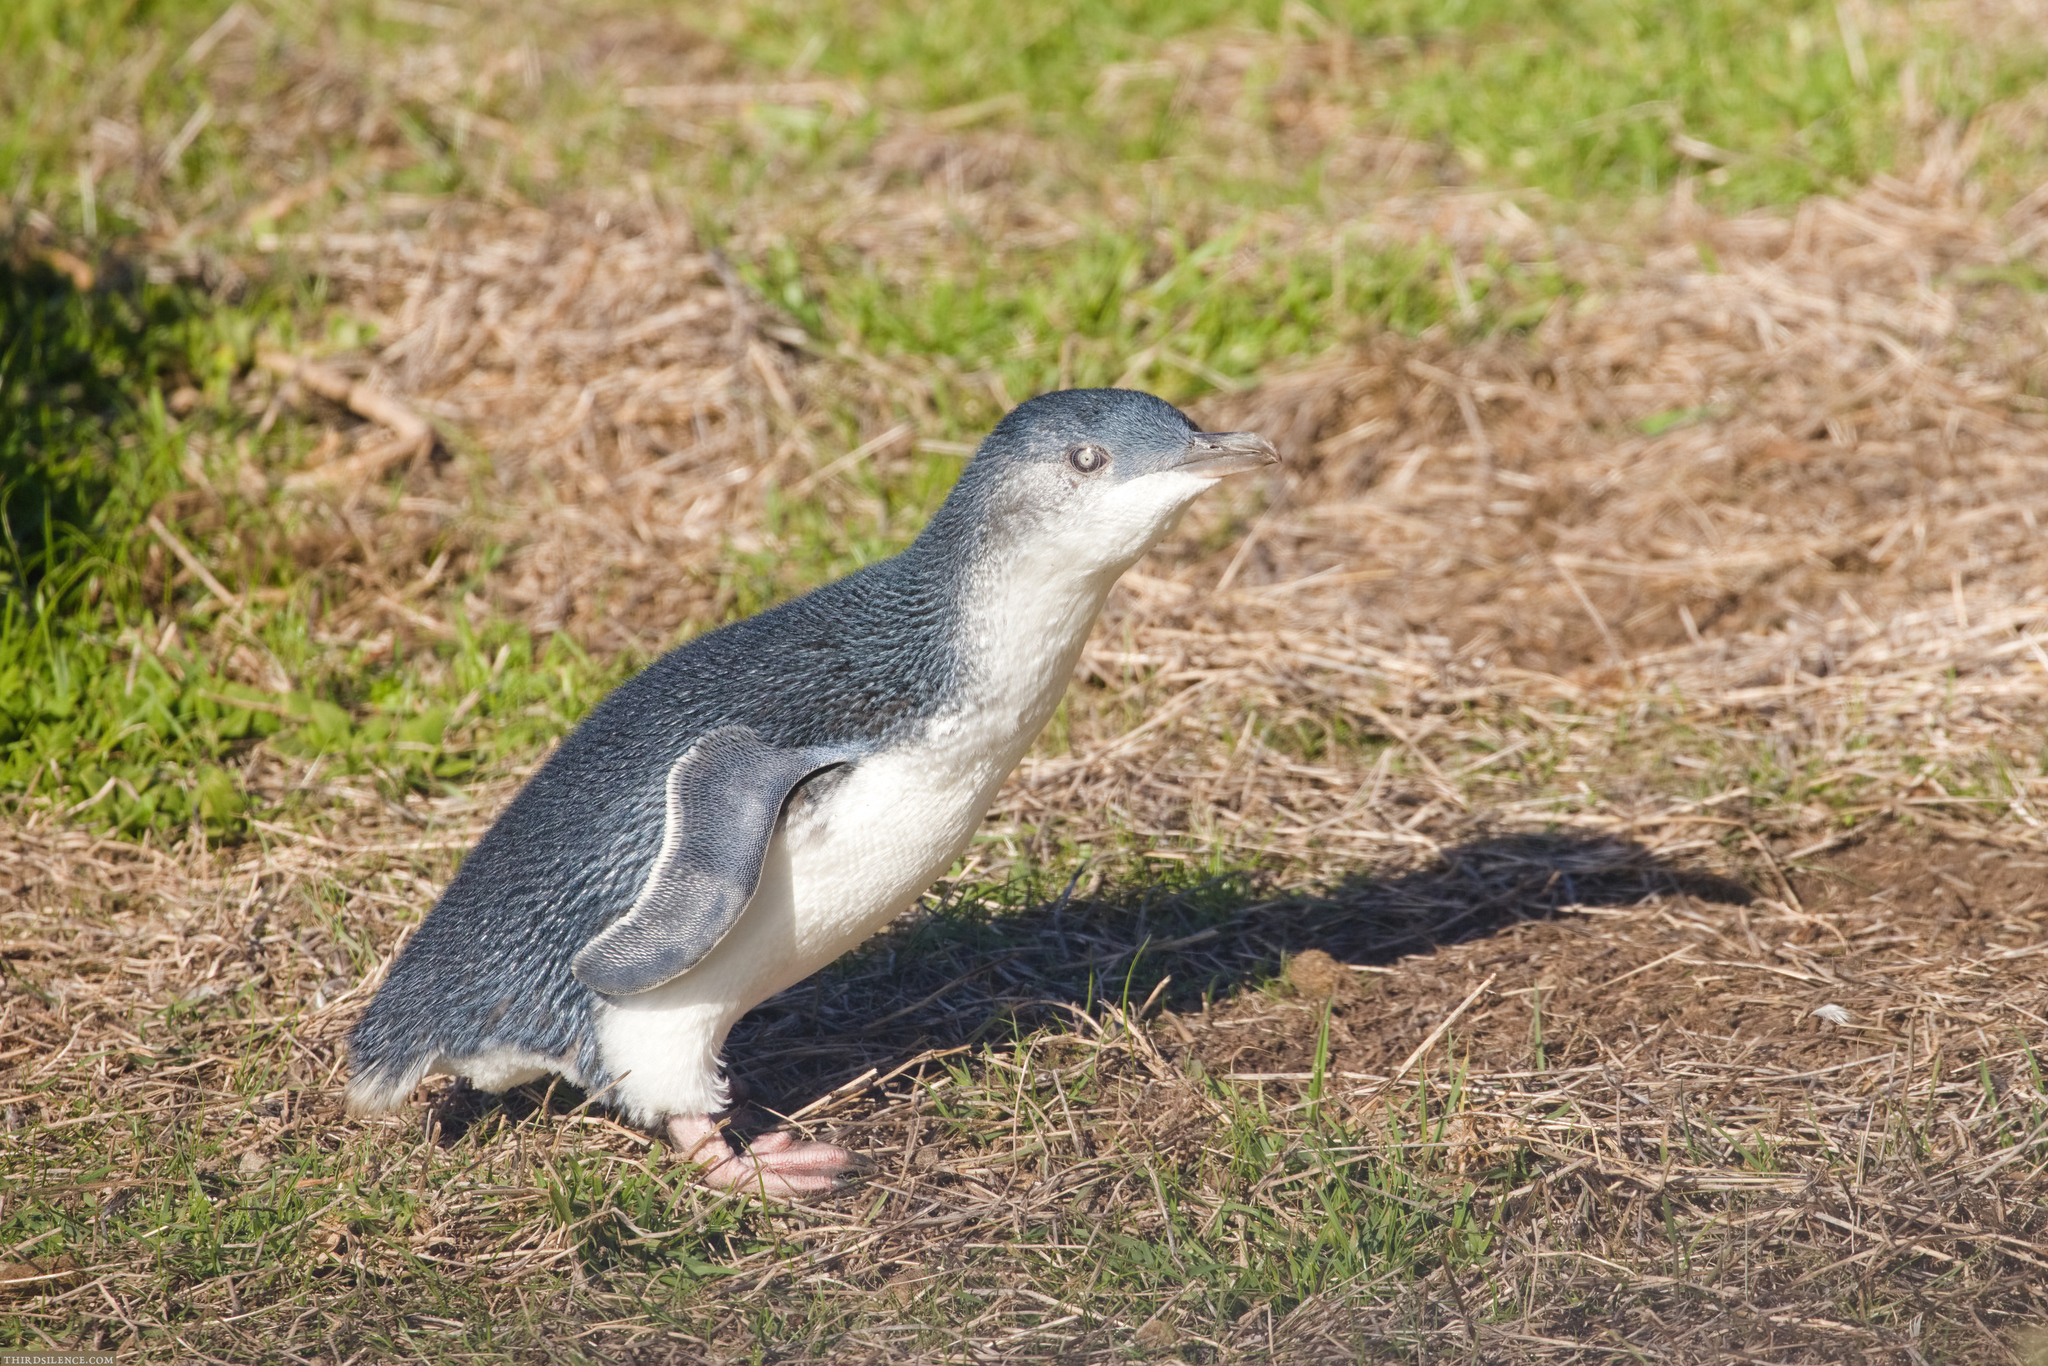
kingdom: Animalia
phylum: Chordata
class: Aves
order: Sphenisciformes
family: Spheniscidae
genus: Eudyptula
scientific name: Eudyptula minor
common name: Little penguin
